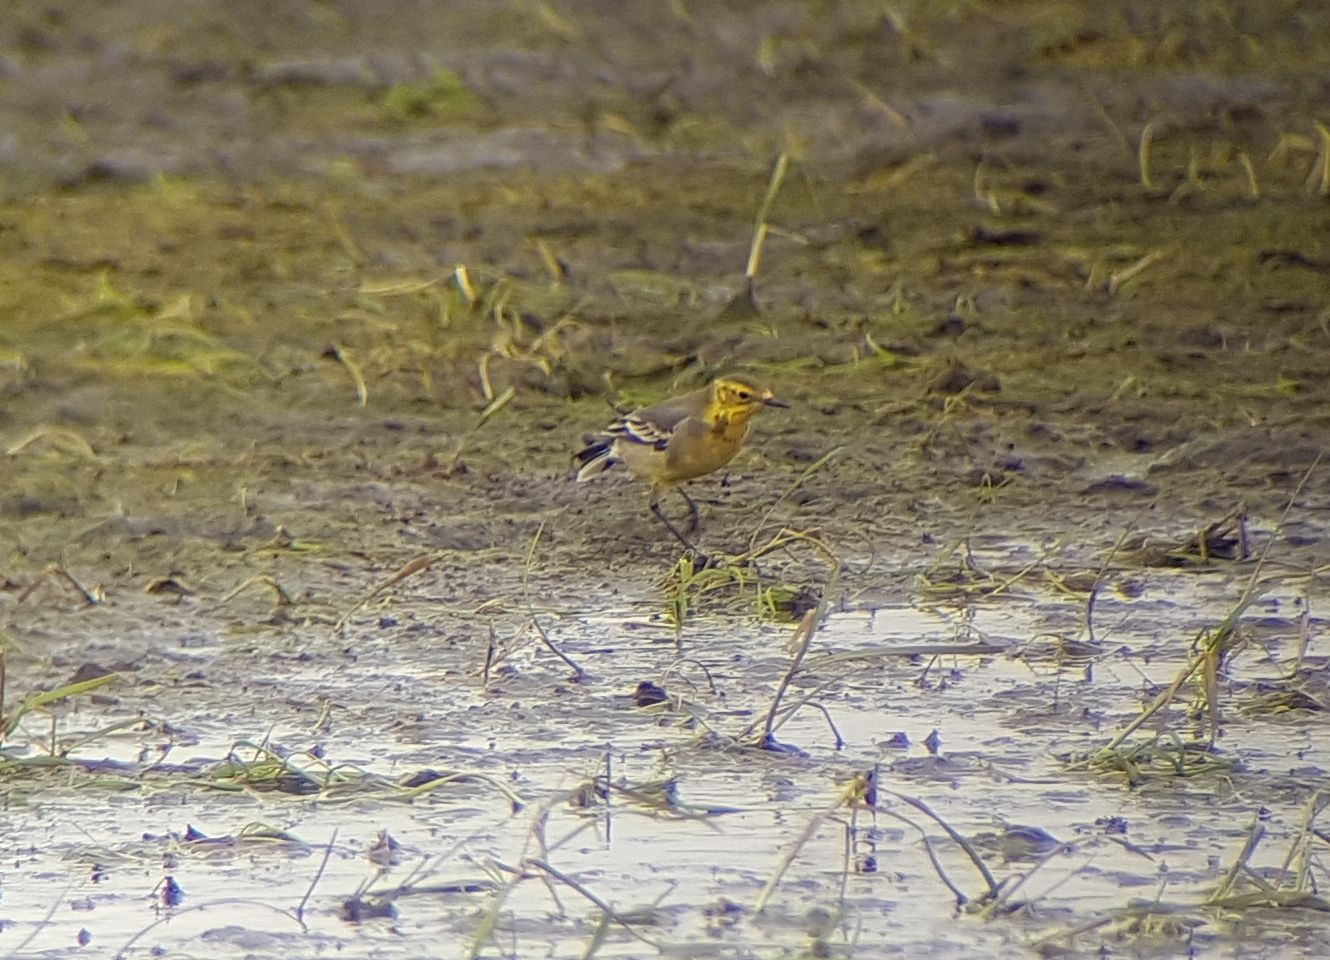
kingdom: Animalia
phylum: Chordata
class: Aves
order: Passeriformes
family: Motacillidae
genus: Motacilla
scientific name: Motacilla citreola
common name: Citrine wagtail
